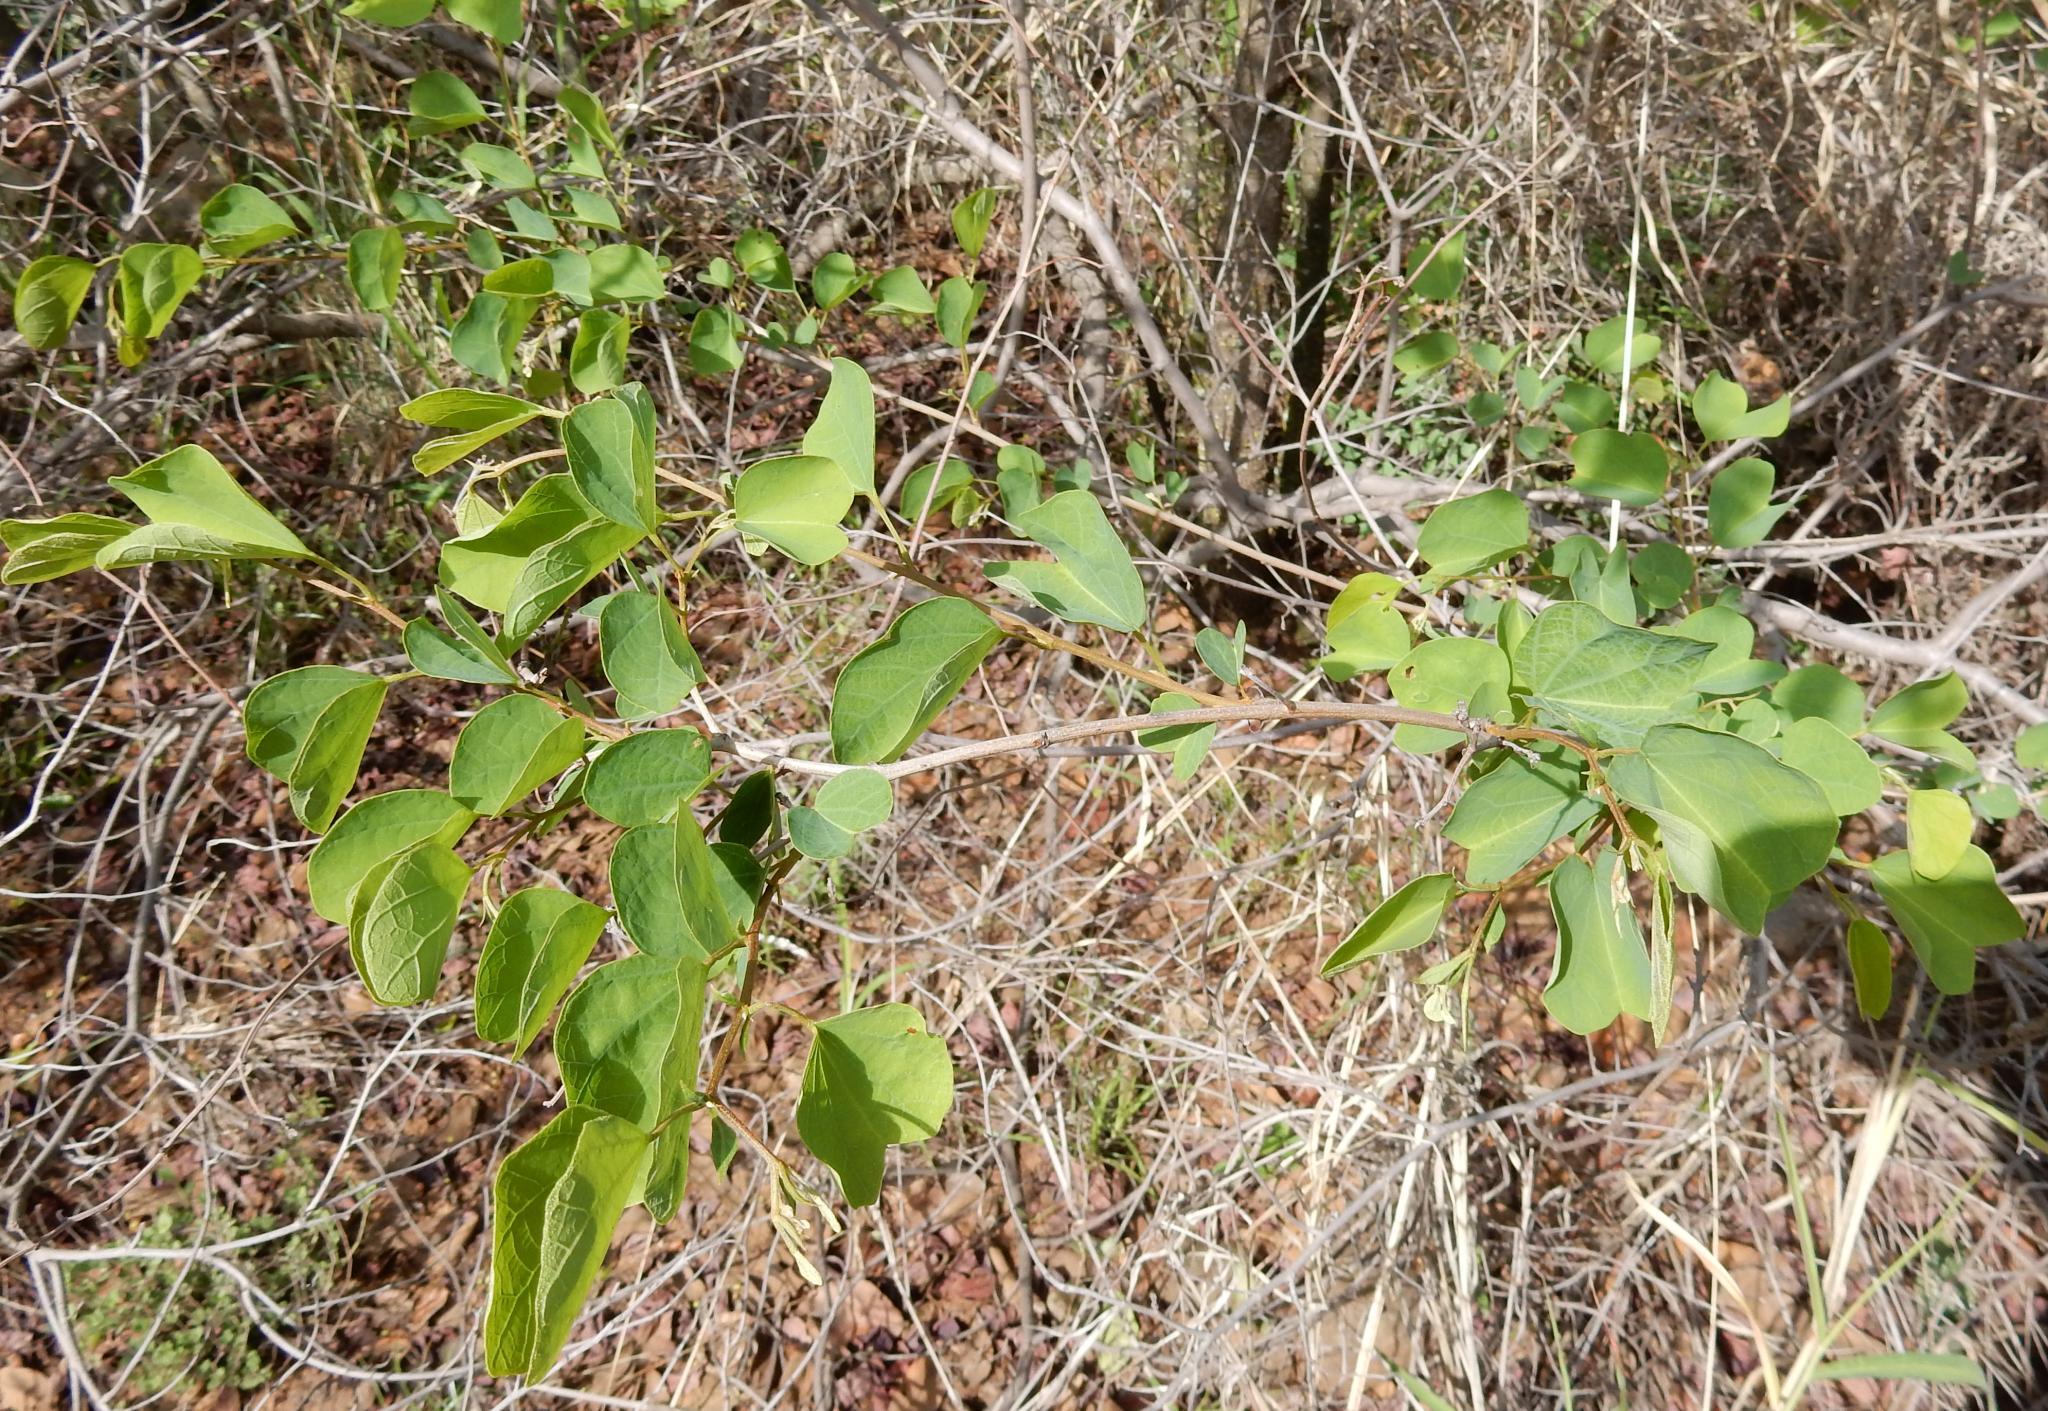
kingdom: Plantae
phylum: Tracheophyta
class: Magnoliopsida
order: Fabales
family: Fabaceae
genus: Bauhinia
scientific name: Bauhinia galpinii
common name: African plume
